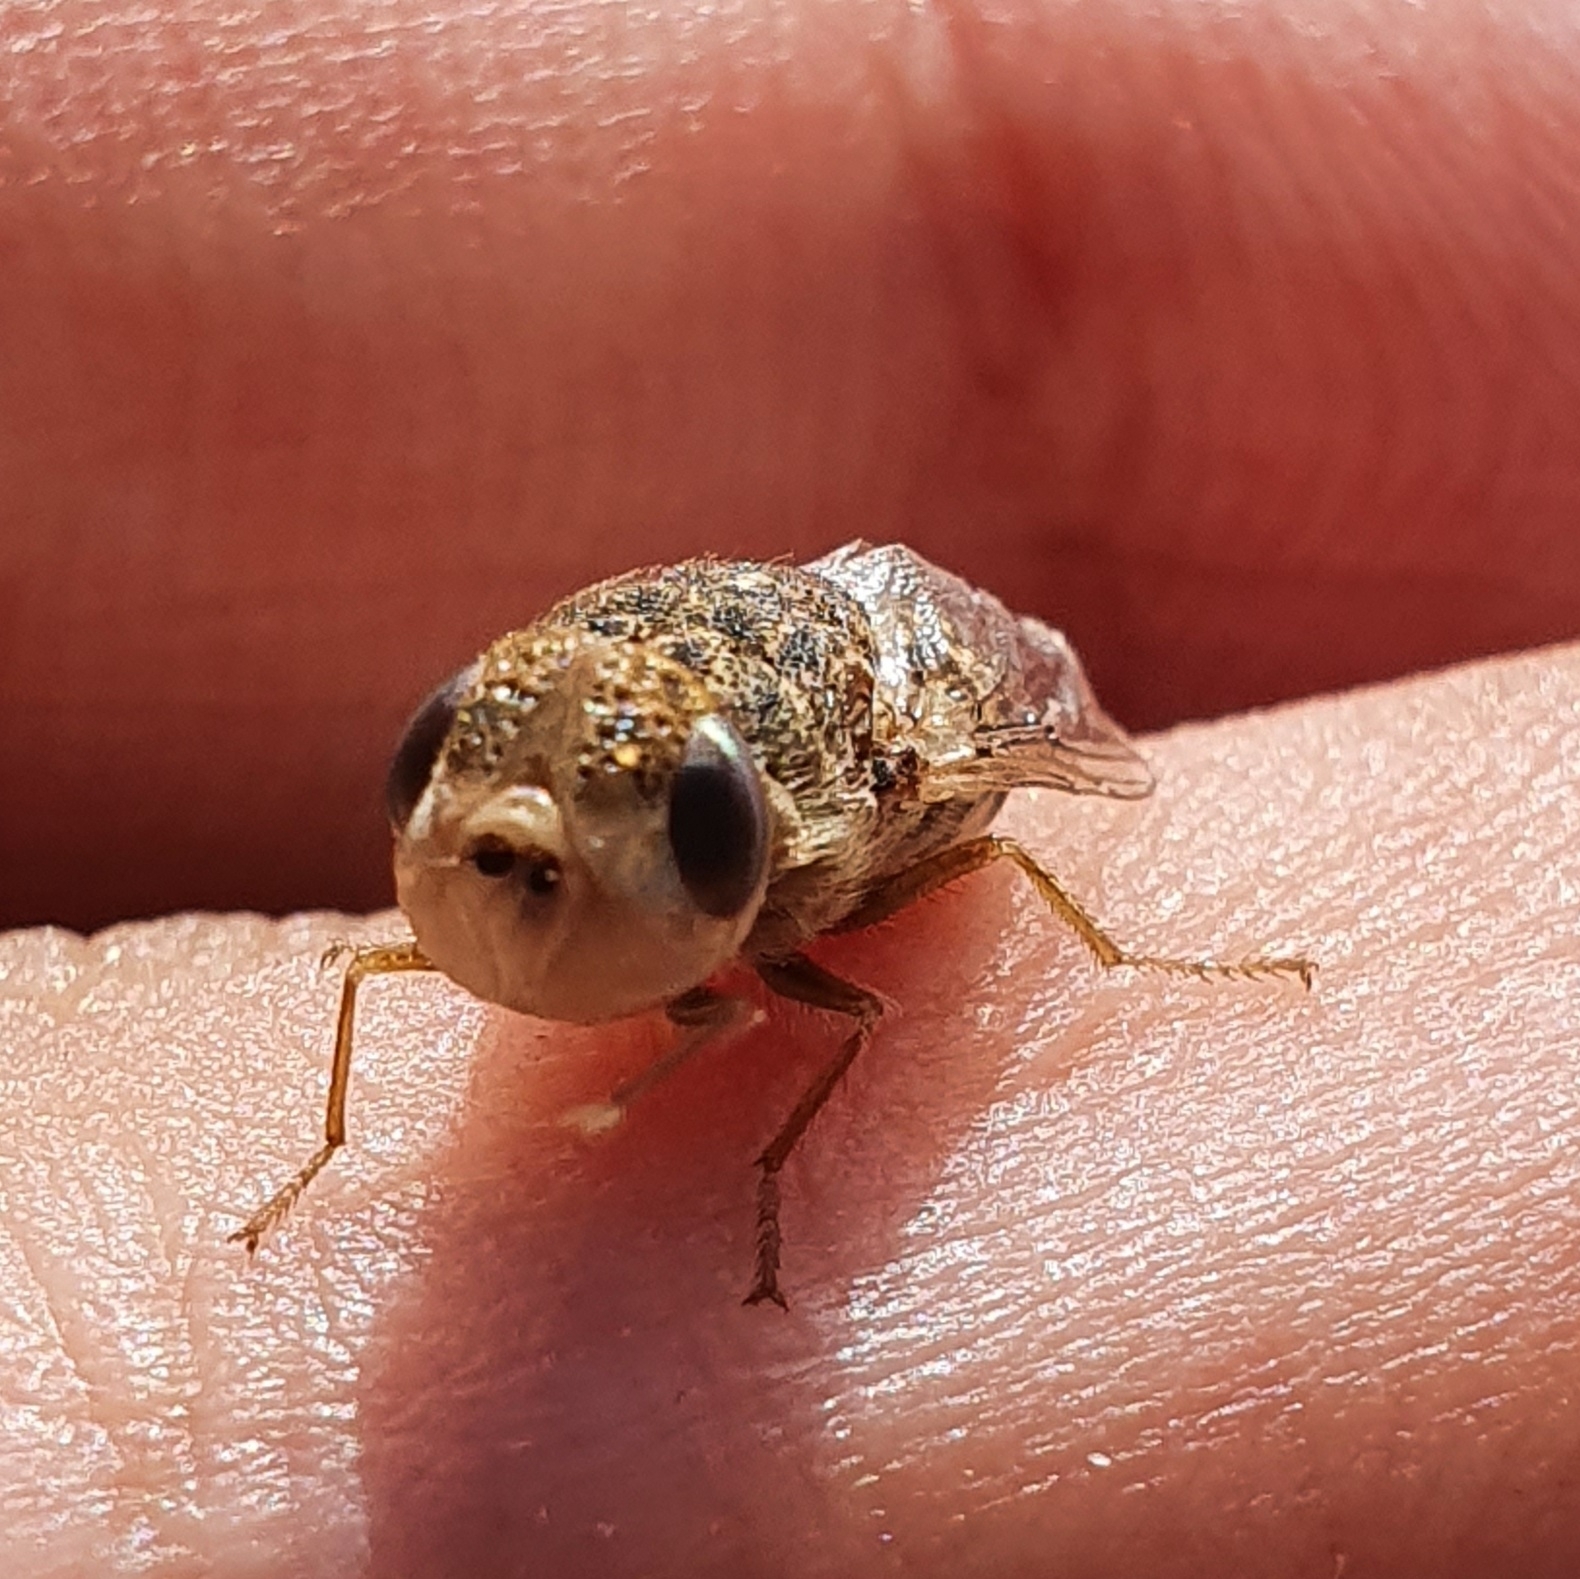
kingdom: Animalia
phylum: Arthropoda
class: Insecta
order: Diptera
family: Oestridae
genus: Oestrus
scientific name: Oestrus ovis
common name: Sheep botfly
